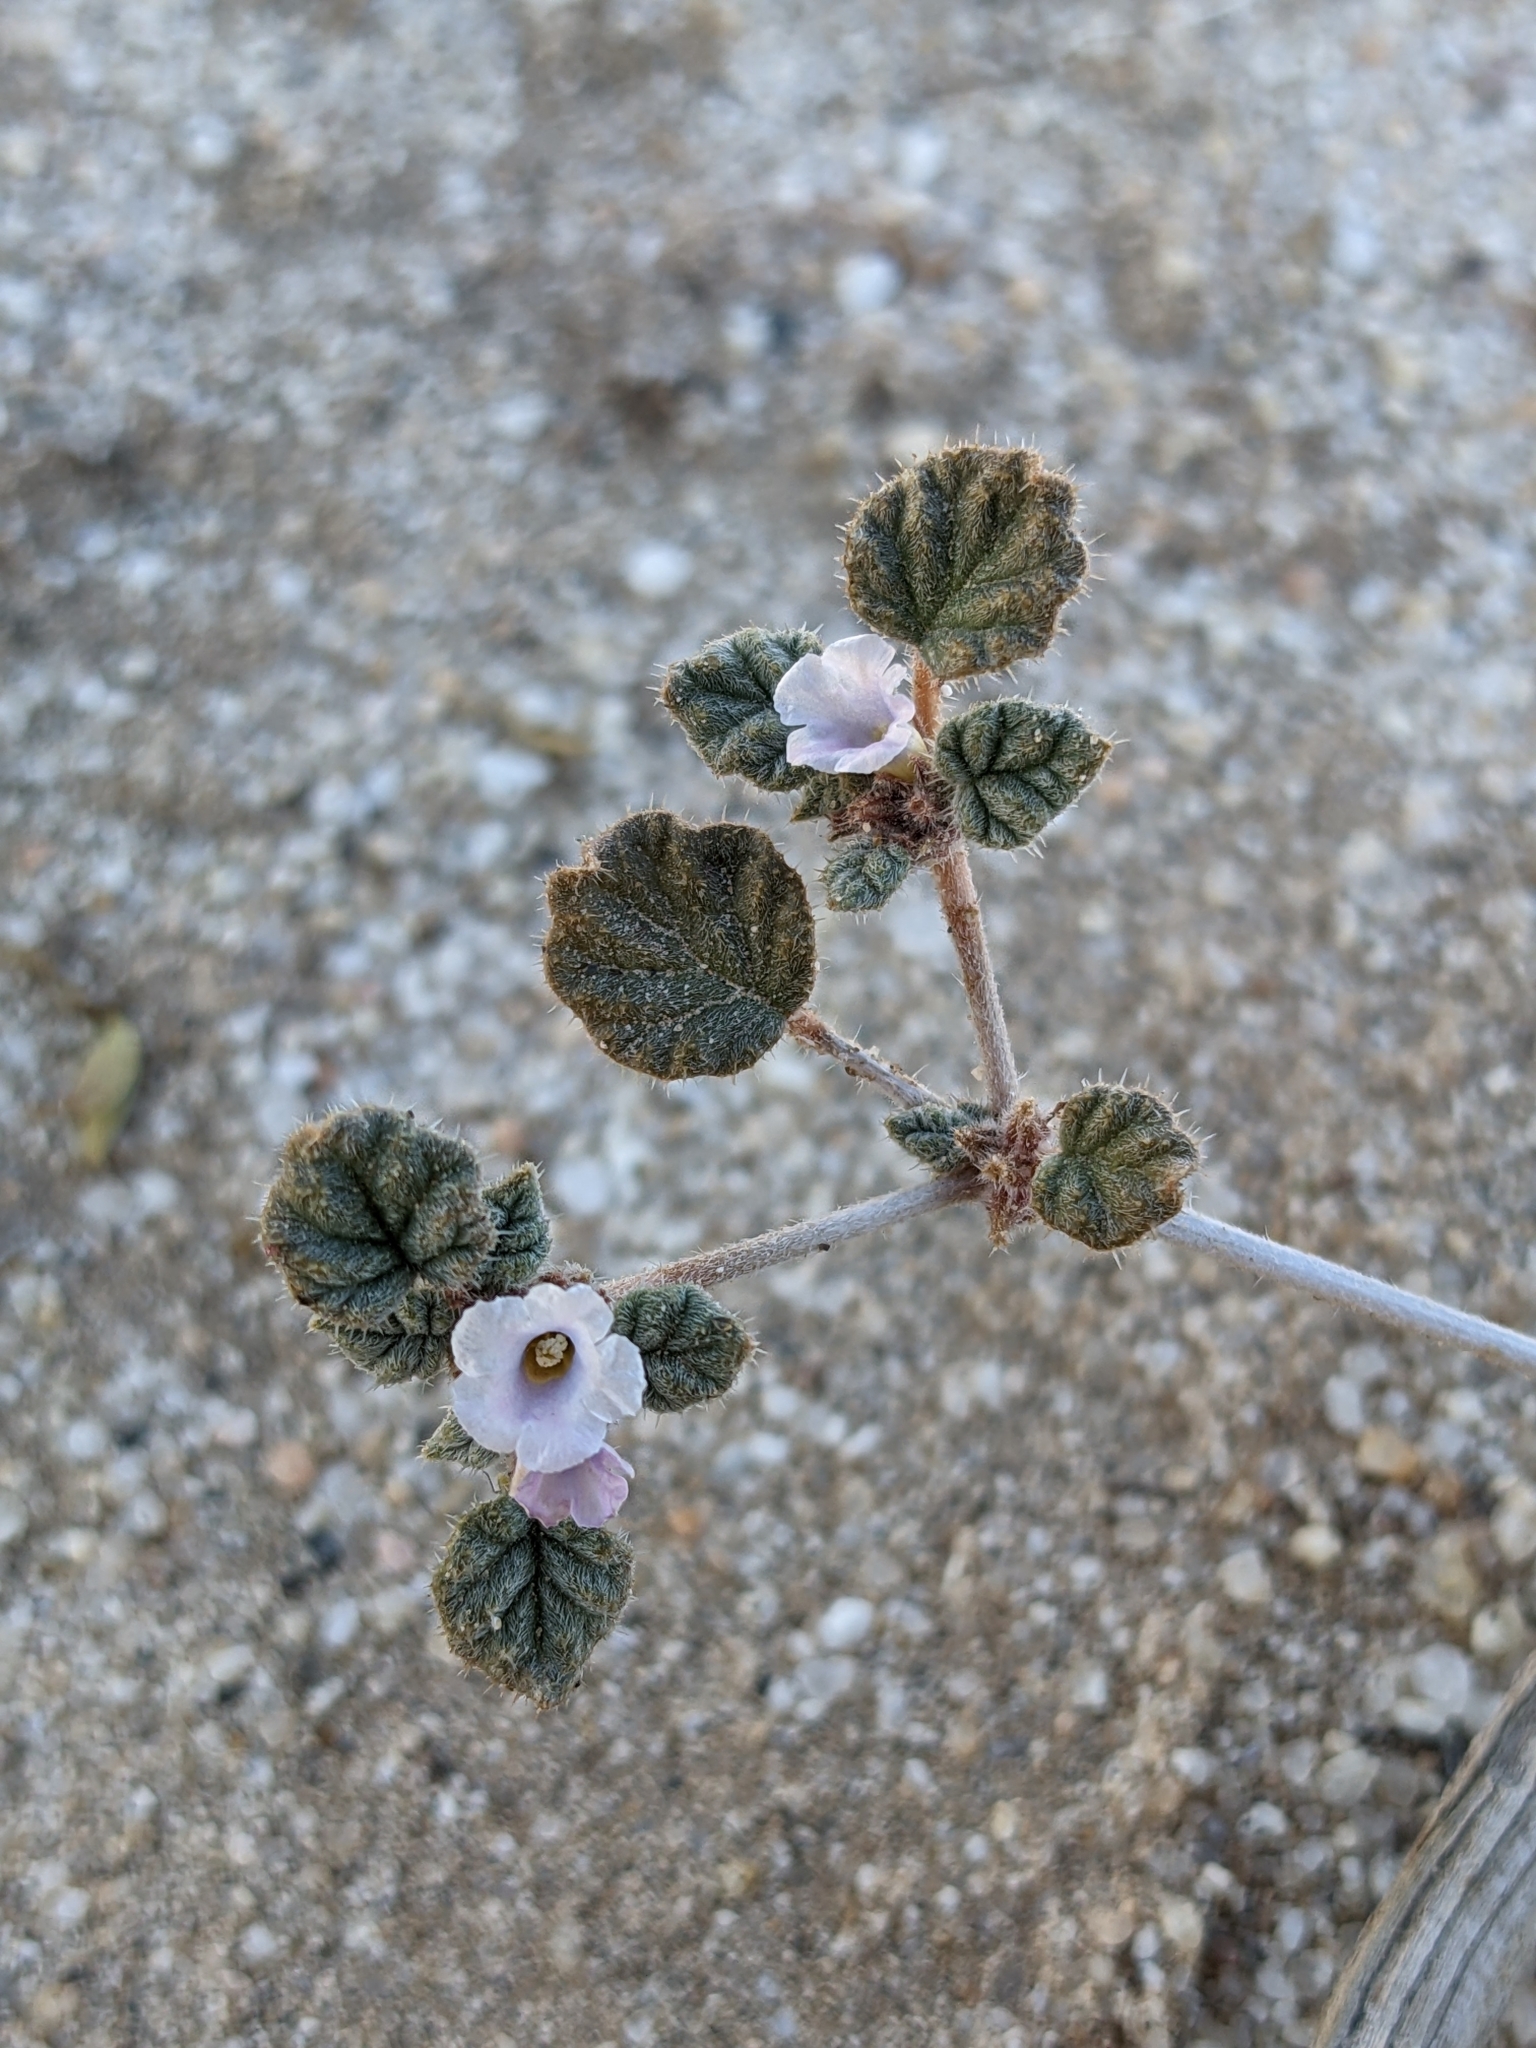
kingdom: Plantae
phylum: Tracheophyta
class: Magnoliopsida
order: Boraginales
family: Ehretiaceae
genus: Tiquilia
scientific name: Tiquilia palmeri
